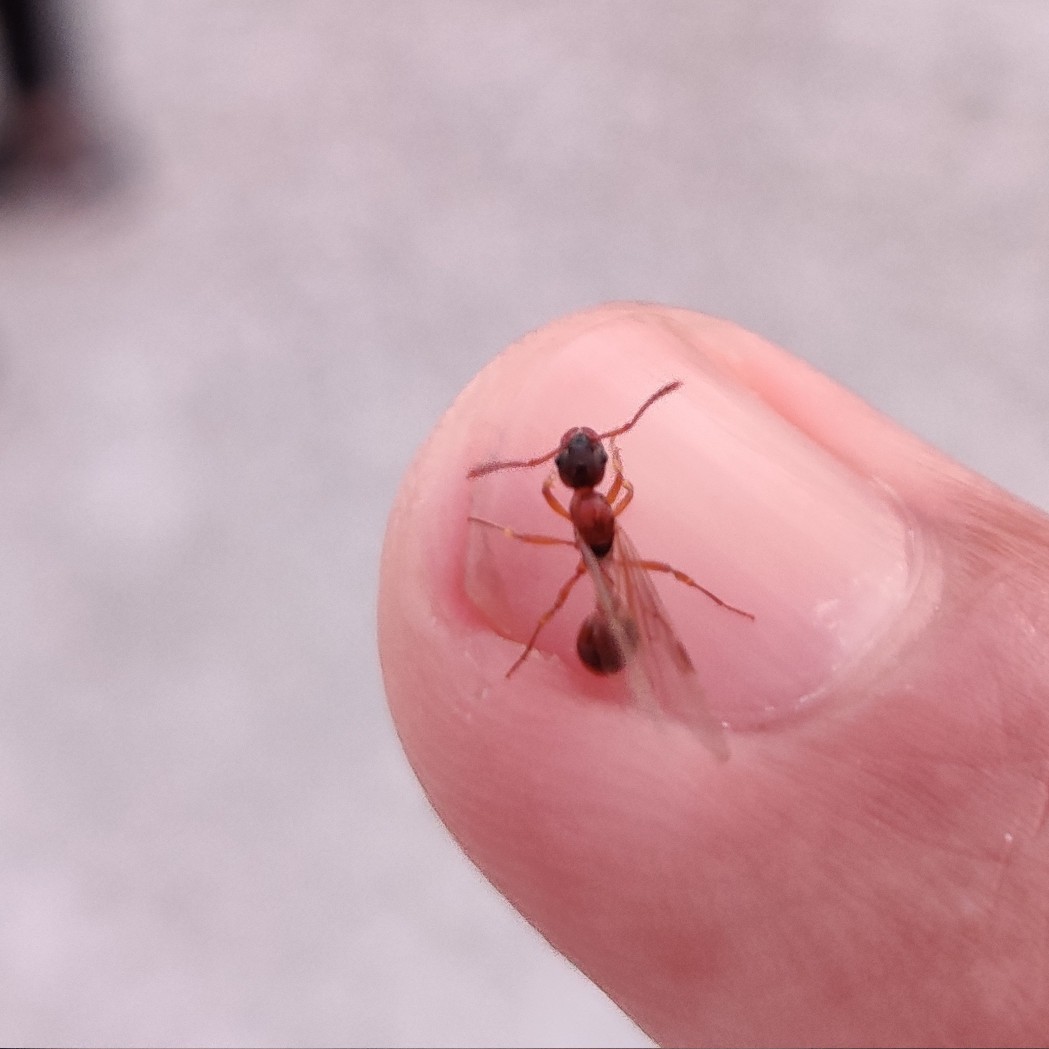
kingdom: Animalia
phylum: Arthropoda
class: Insecta
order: Hymenoptera
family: Formicidae
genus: Myrmica
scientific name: Myrmica
